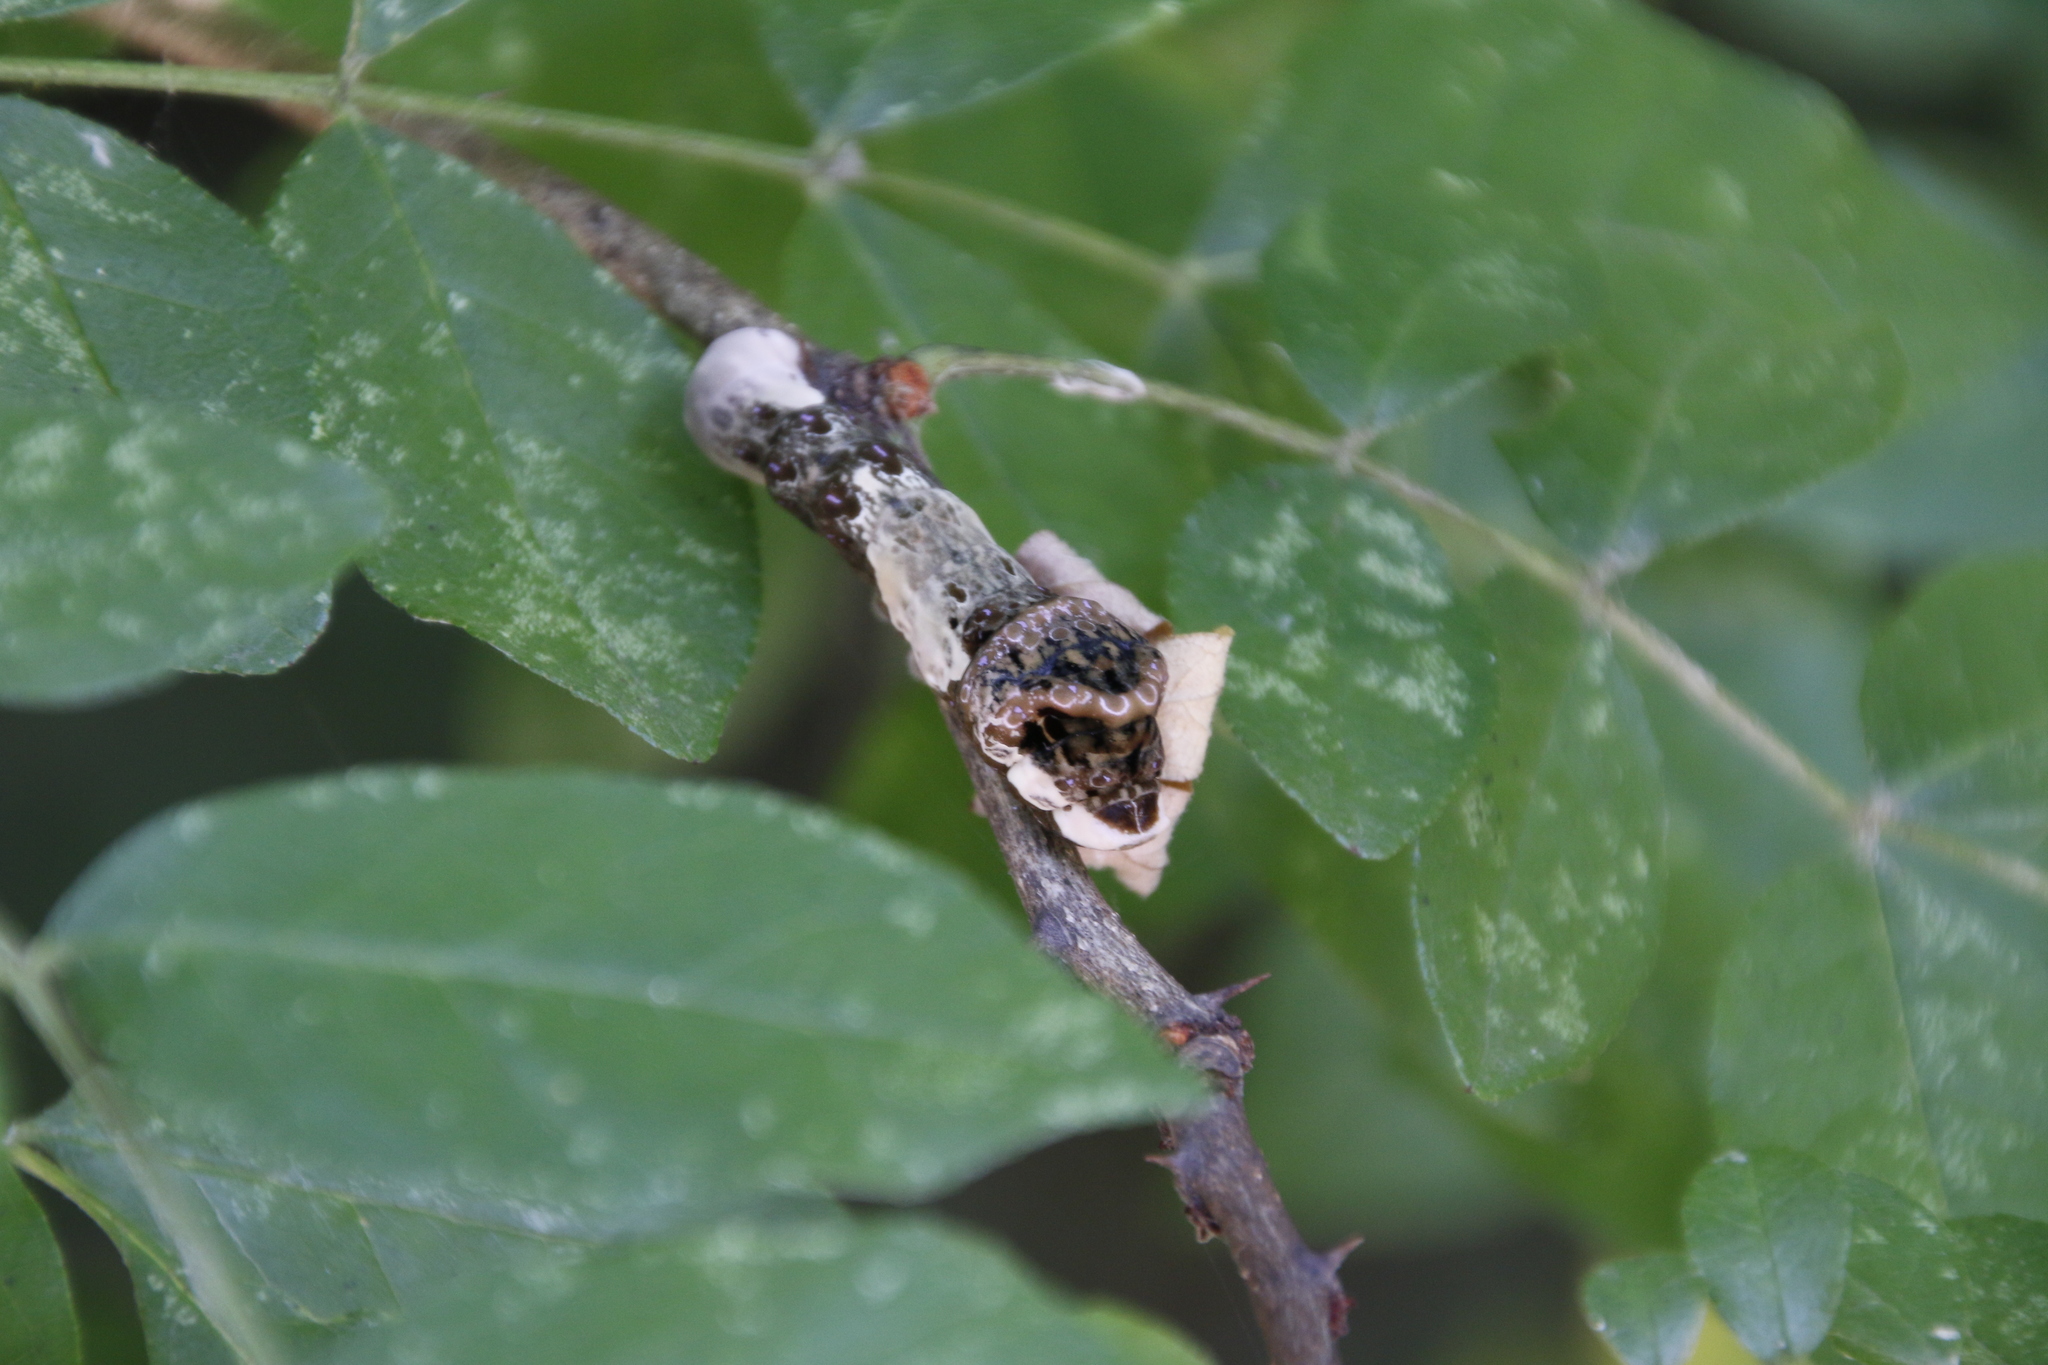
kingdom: Animalia
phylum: Arthropoda
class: Insecta
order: Lepidoptera
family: Papilionidae
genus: Papilio
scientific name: Papilio cresphontes
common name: Giant swallowtail
